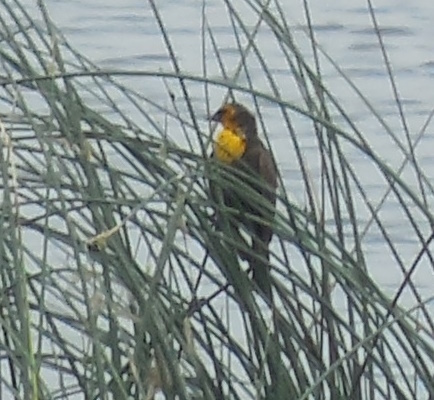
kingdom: Animalia
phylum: Chordata
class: Aves
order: Passeriformes
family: Icteridae
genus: Xanthocephalus
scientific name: Xanthocephalus xanthocephalus
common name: Yellow-headed blackbird
